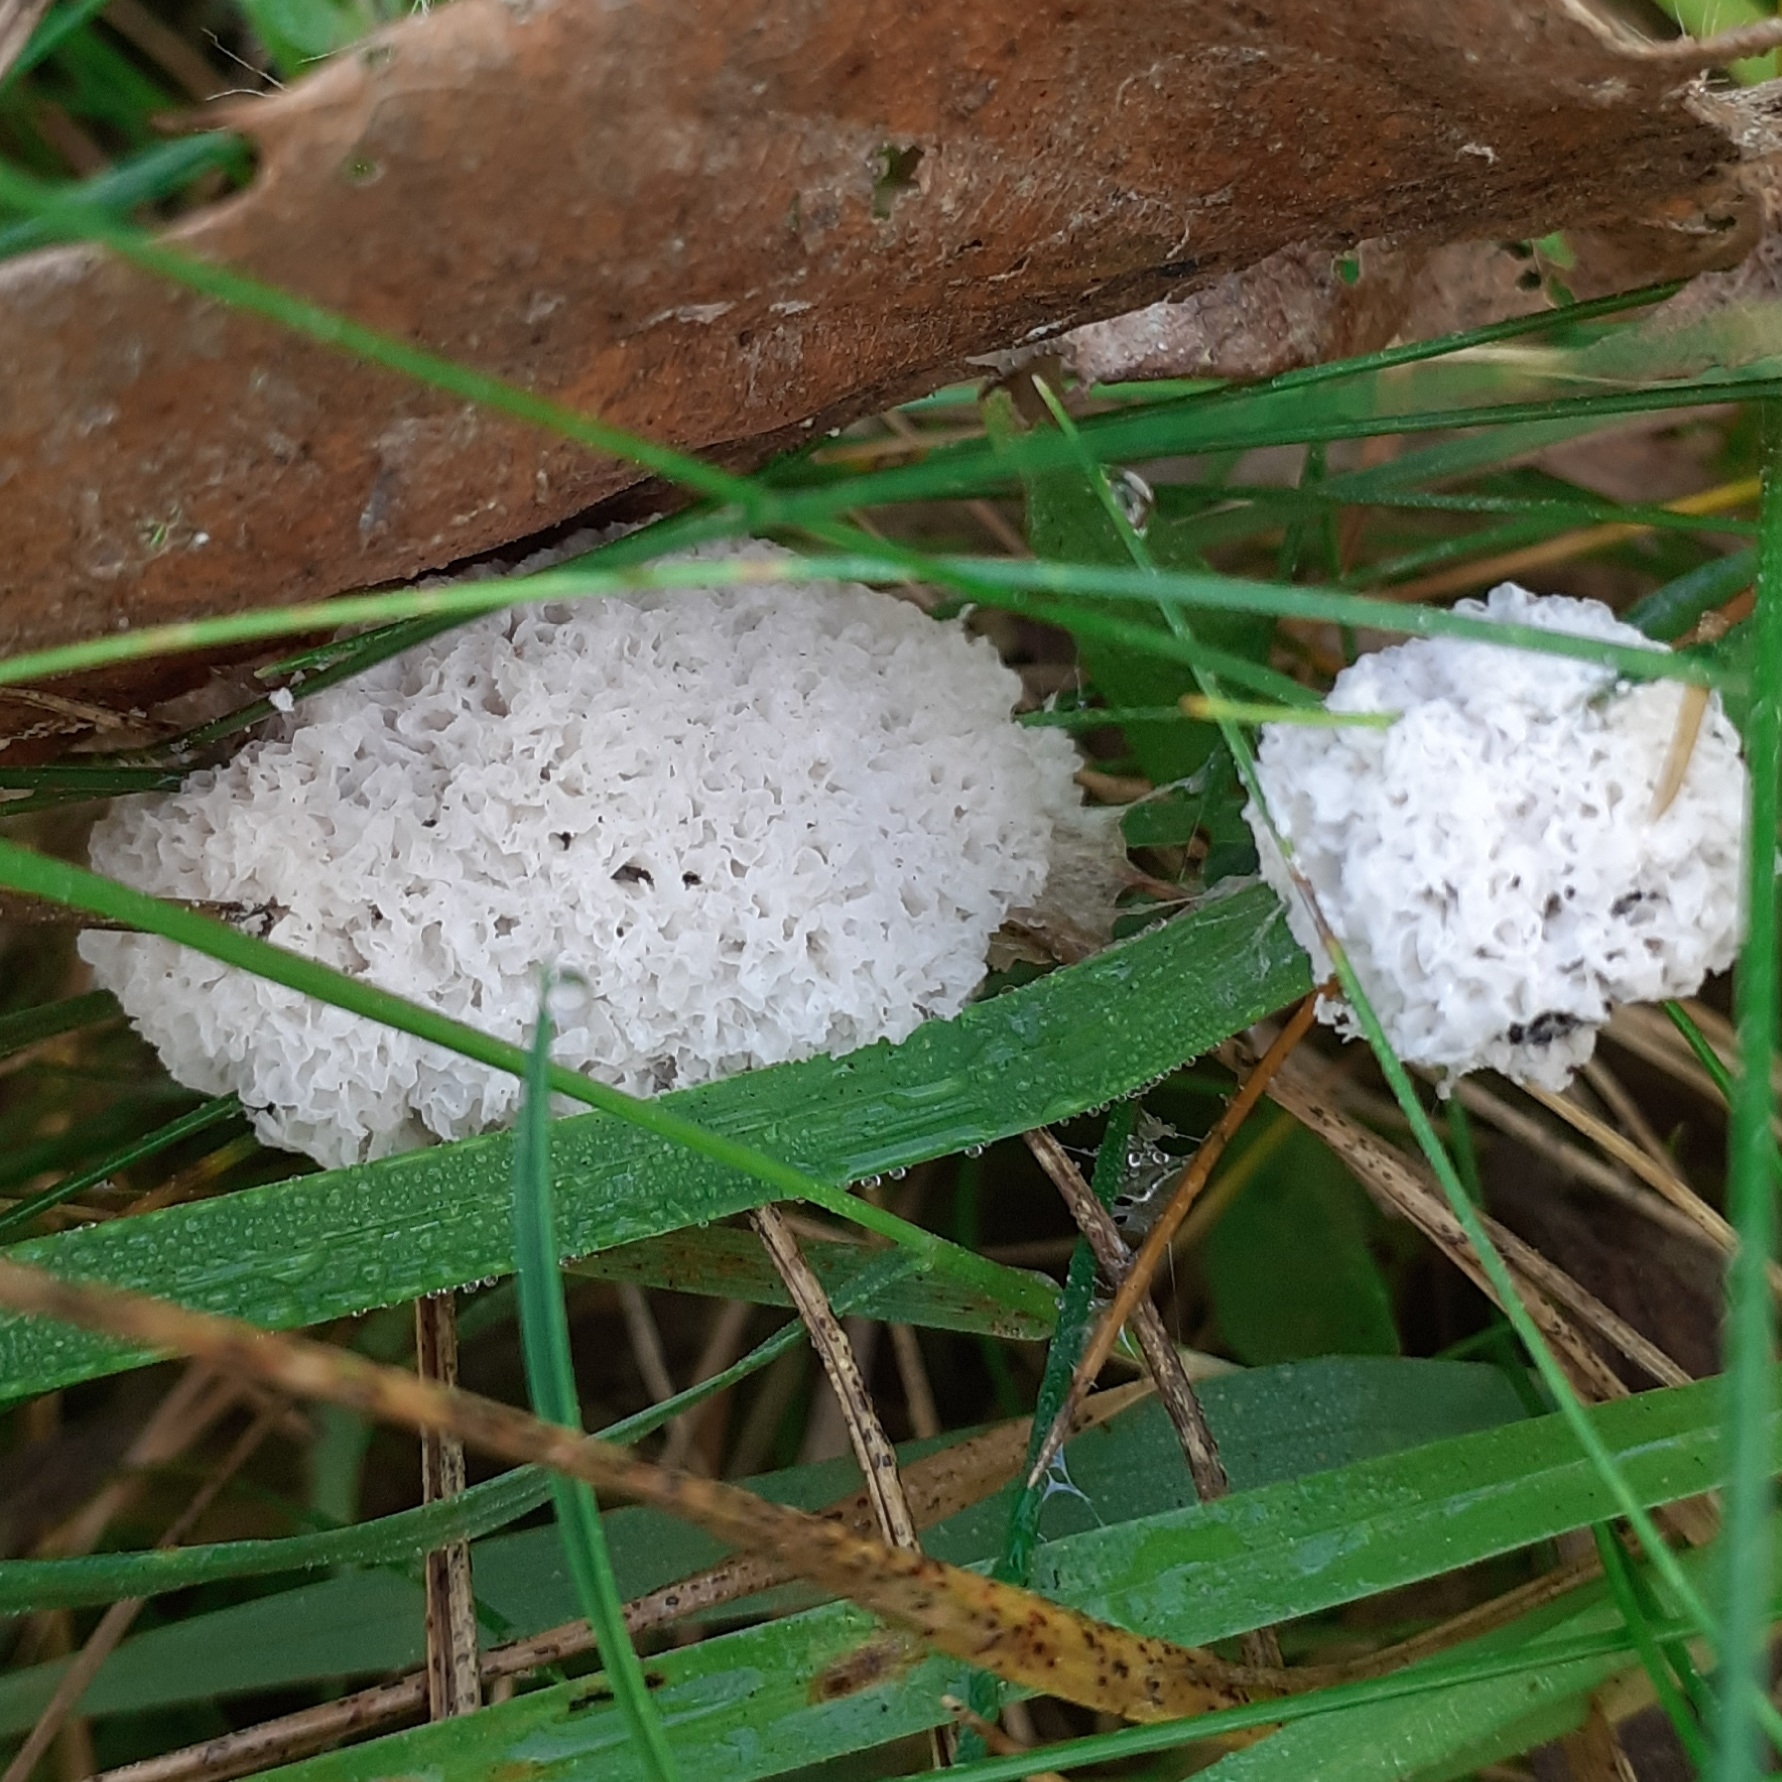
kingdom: Protozoa
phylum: Mycetozoa
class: Myxomycetes
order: Physarales
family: Physaraceae
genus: Didymium
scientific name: Didymium
